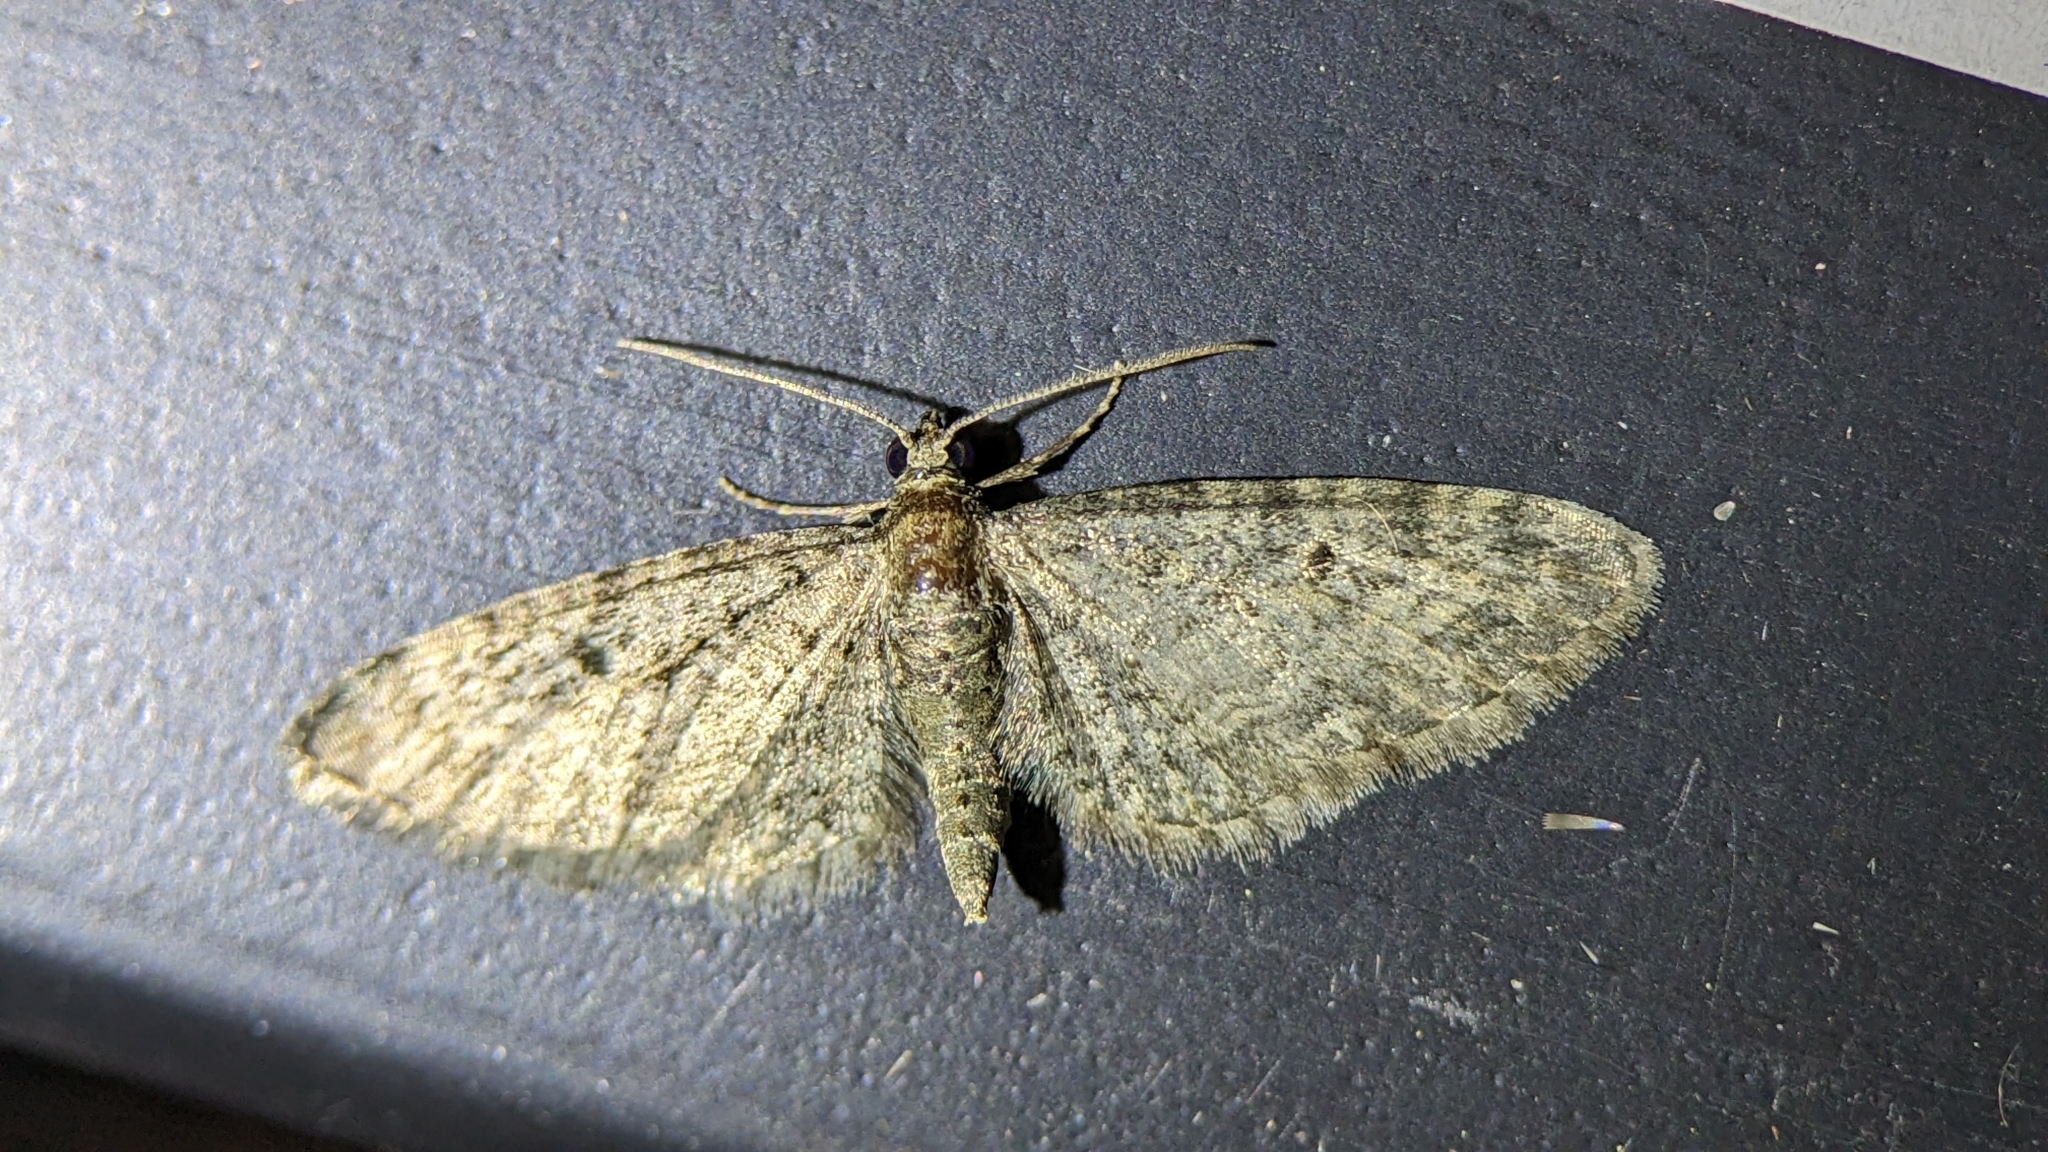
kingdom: Animalia
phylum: Arthropoda
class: Insecta
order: Lepidoptera
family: Geometridae
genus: Eupithecia
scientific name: Eupithecia miserulata
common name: Common eupithecia
